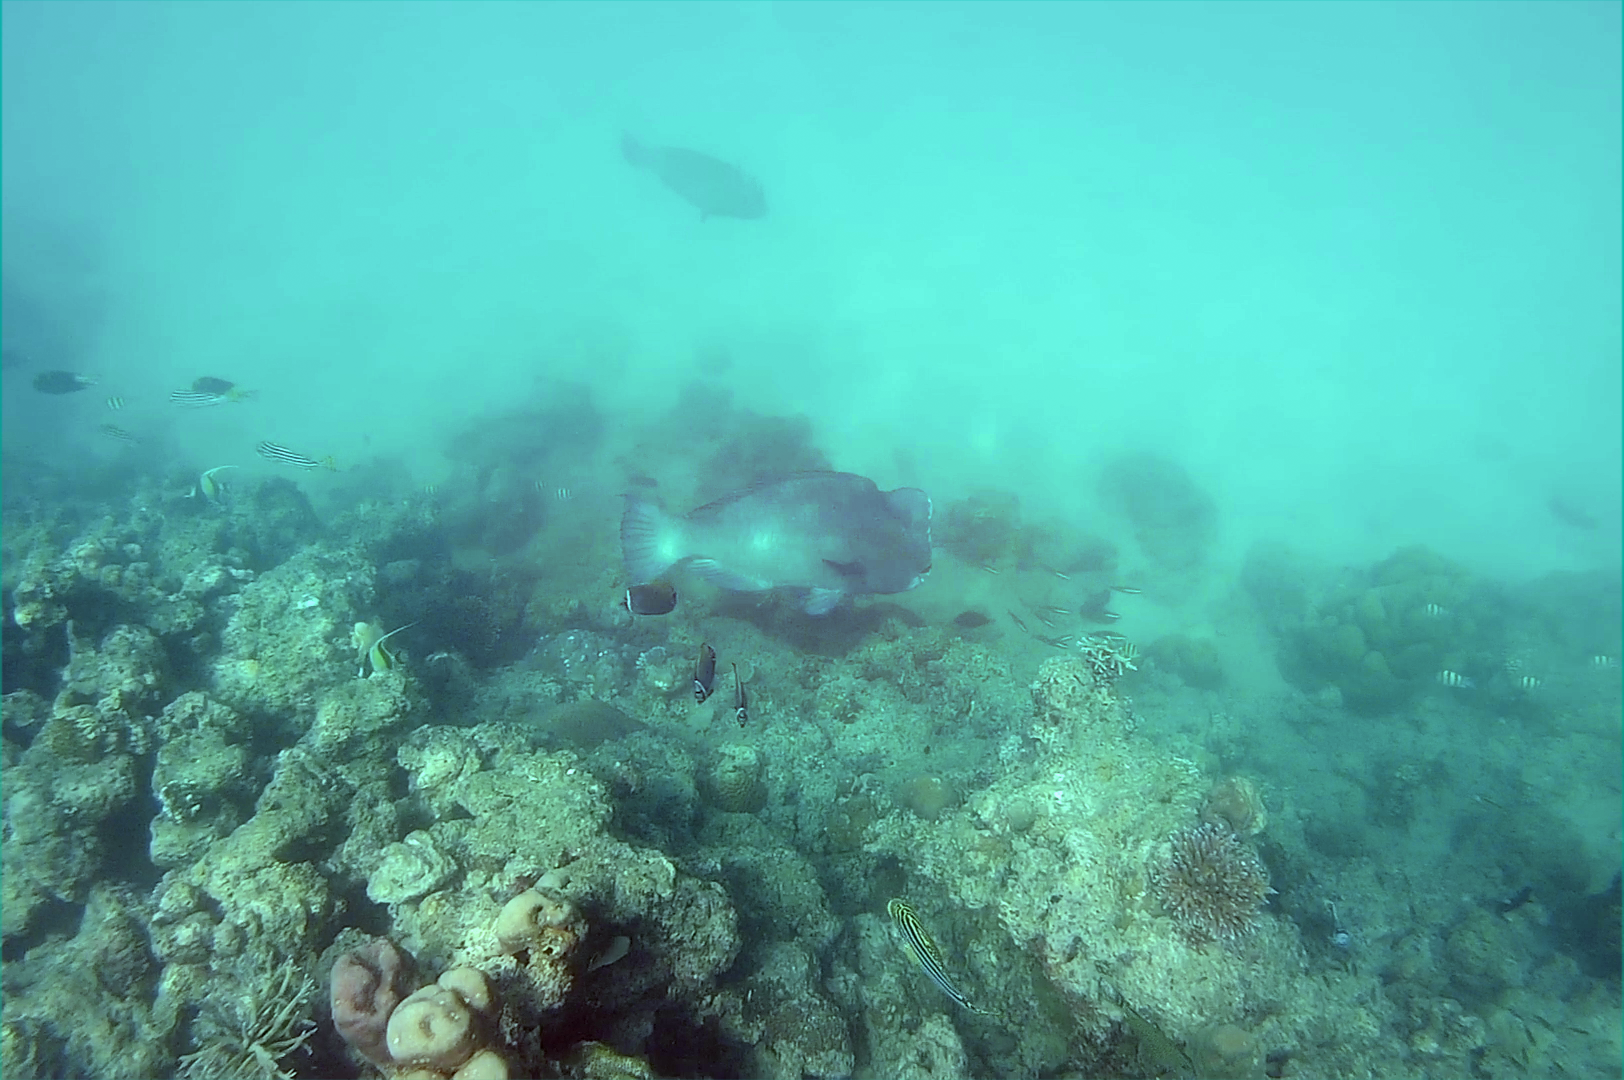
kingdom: Animalia
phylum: Chordata
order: Perciformes
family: Scaridae
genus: Bolbometopon
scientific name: Bolbometopon muricatum
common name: Humphead parrotfish
